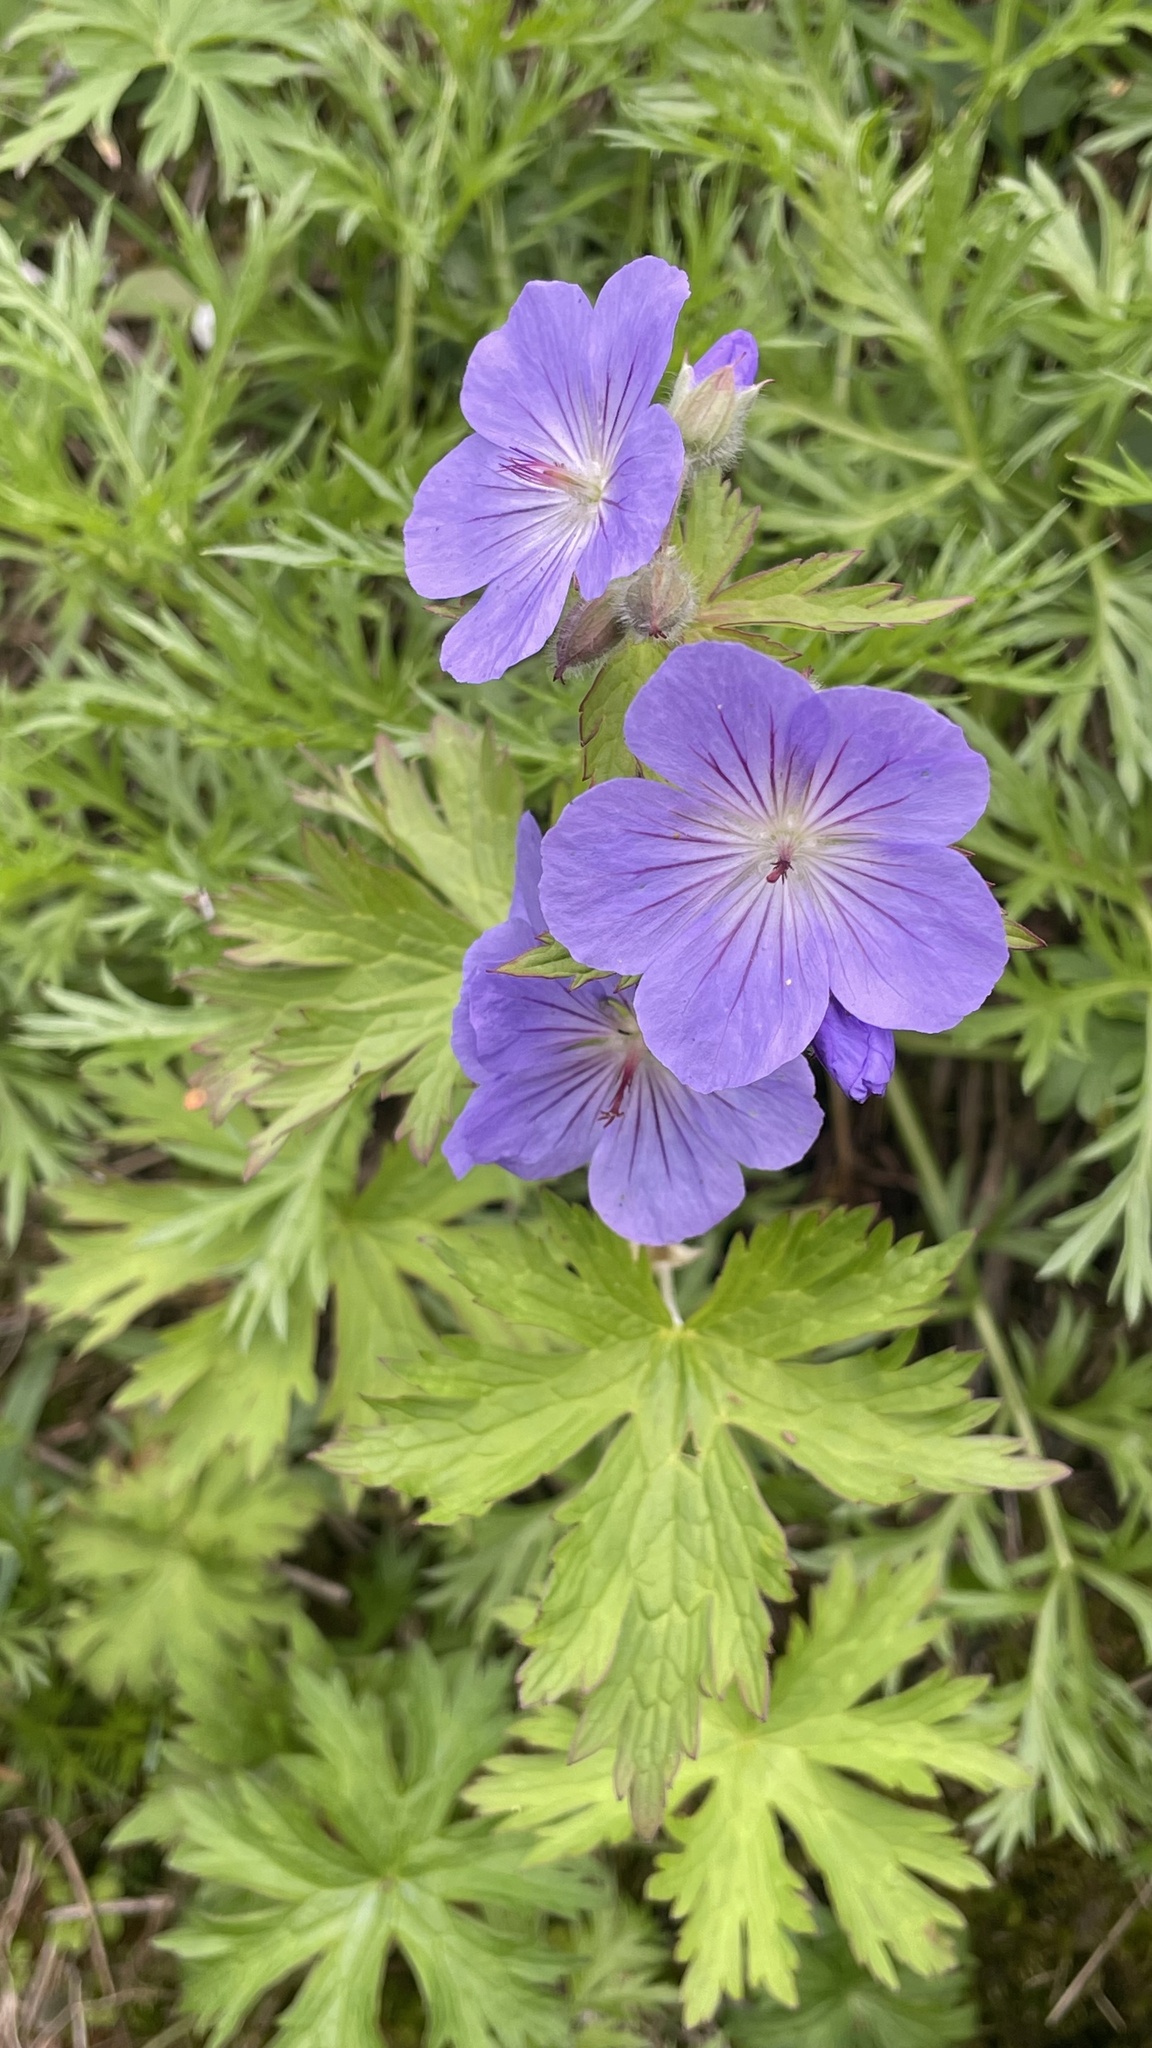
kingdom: Plantae
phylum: Tracheophyta
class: Magnoliopsida
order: Geraniales
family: Geraniaceae
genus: Geranium
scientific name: Geranium erianthum
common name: Northern crane's-bill
